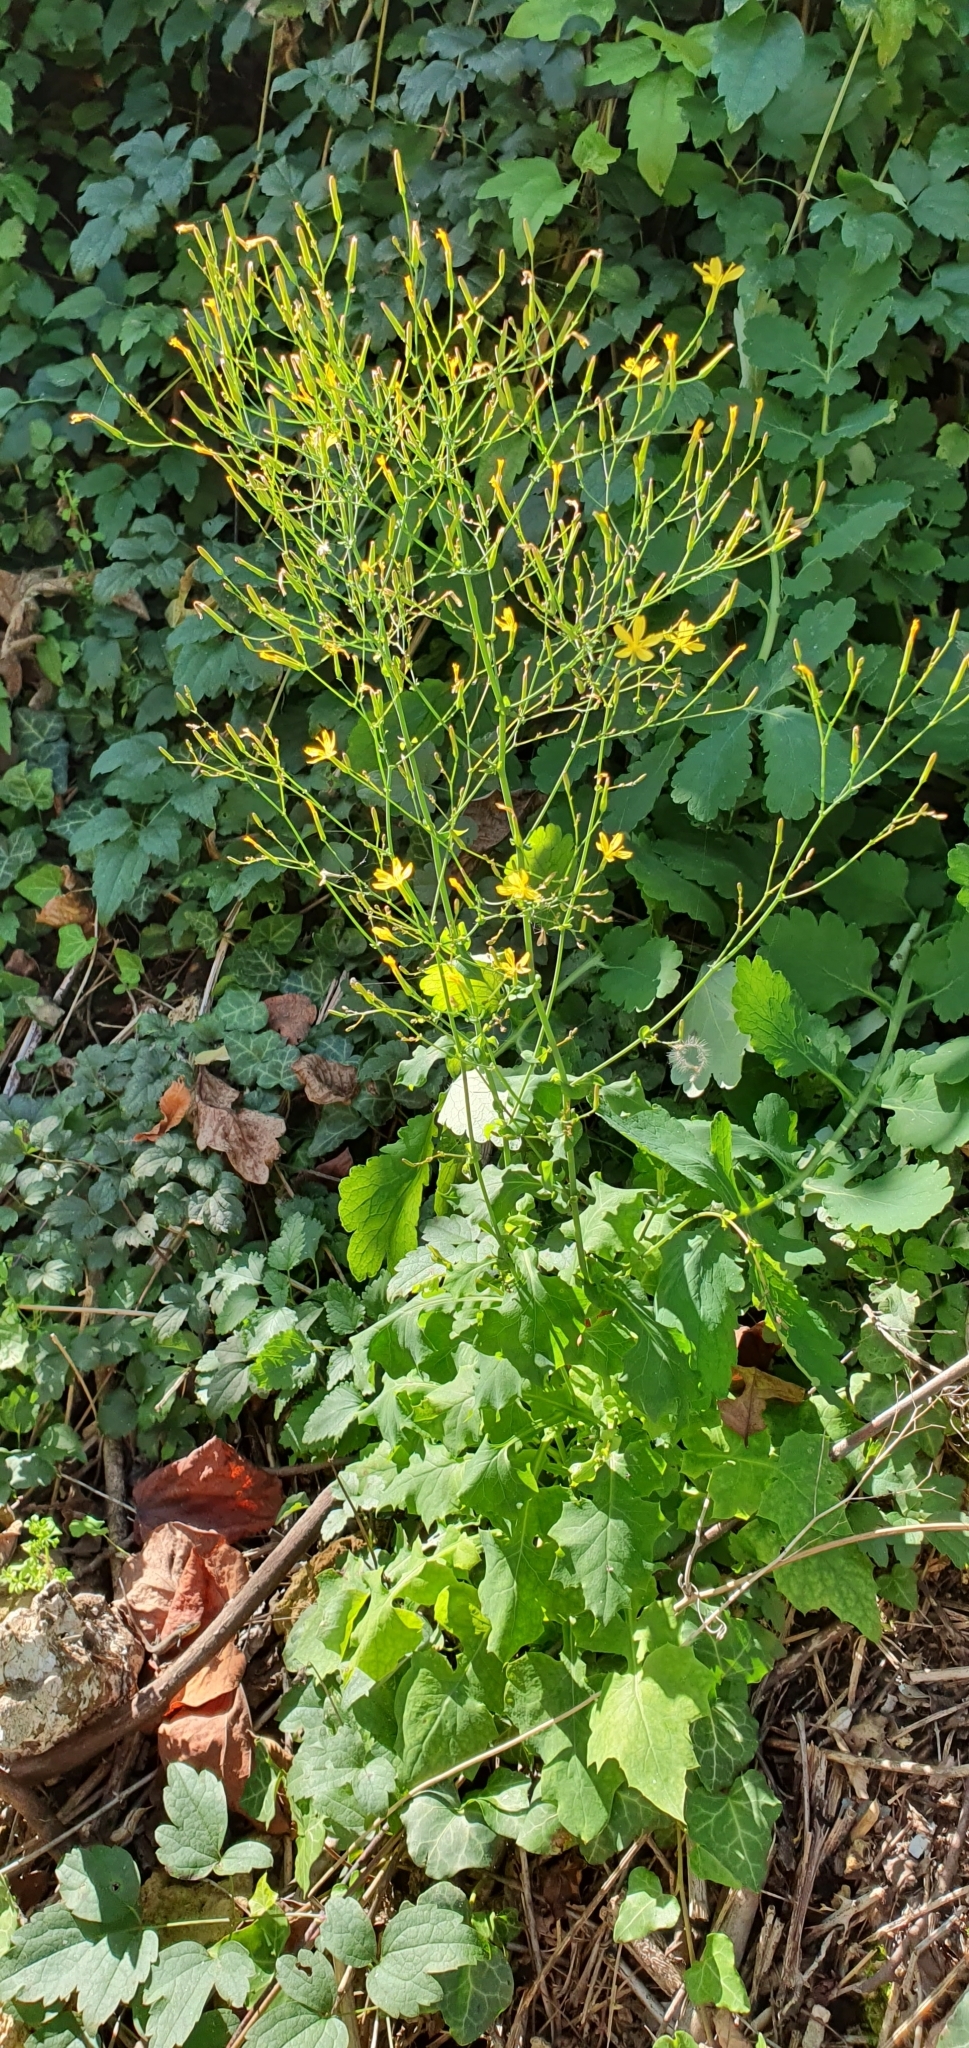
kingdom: Plantae
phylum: Tracheophyta
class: Magnoliopsida
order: Asterales
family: Asteraceae
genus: Mycelis
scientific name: Mycelis muralis
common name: Wall lettuce
